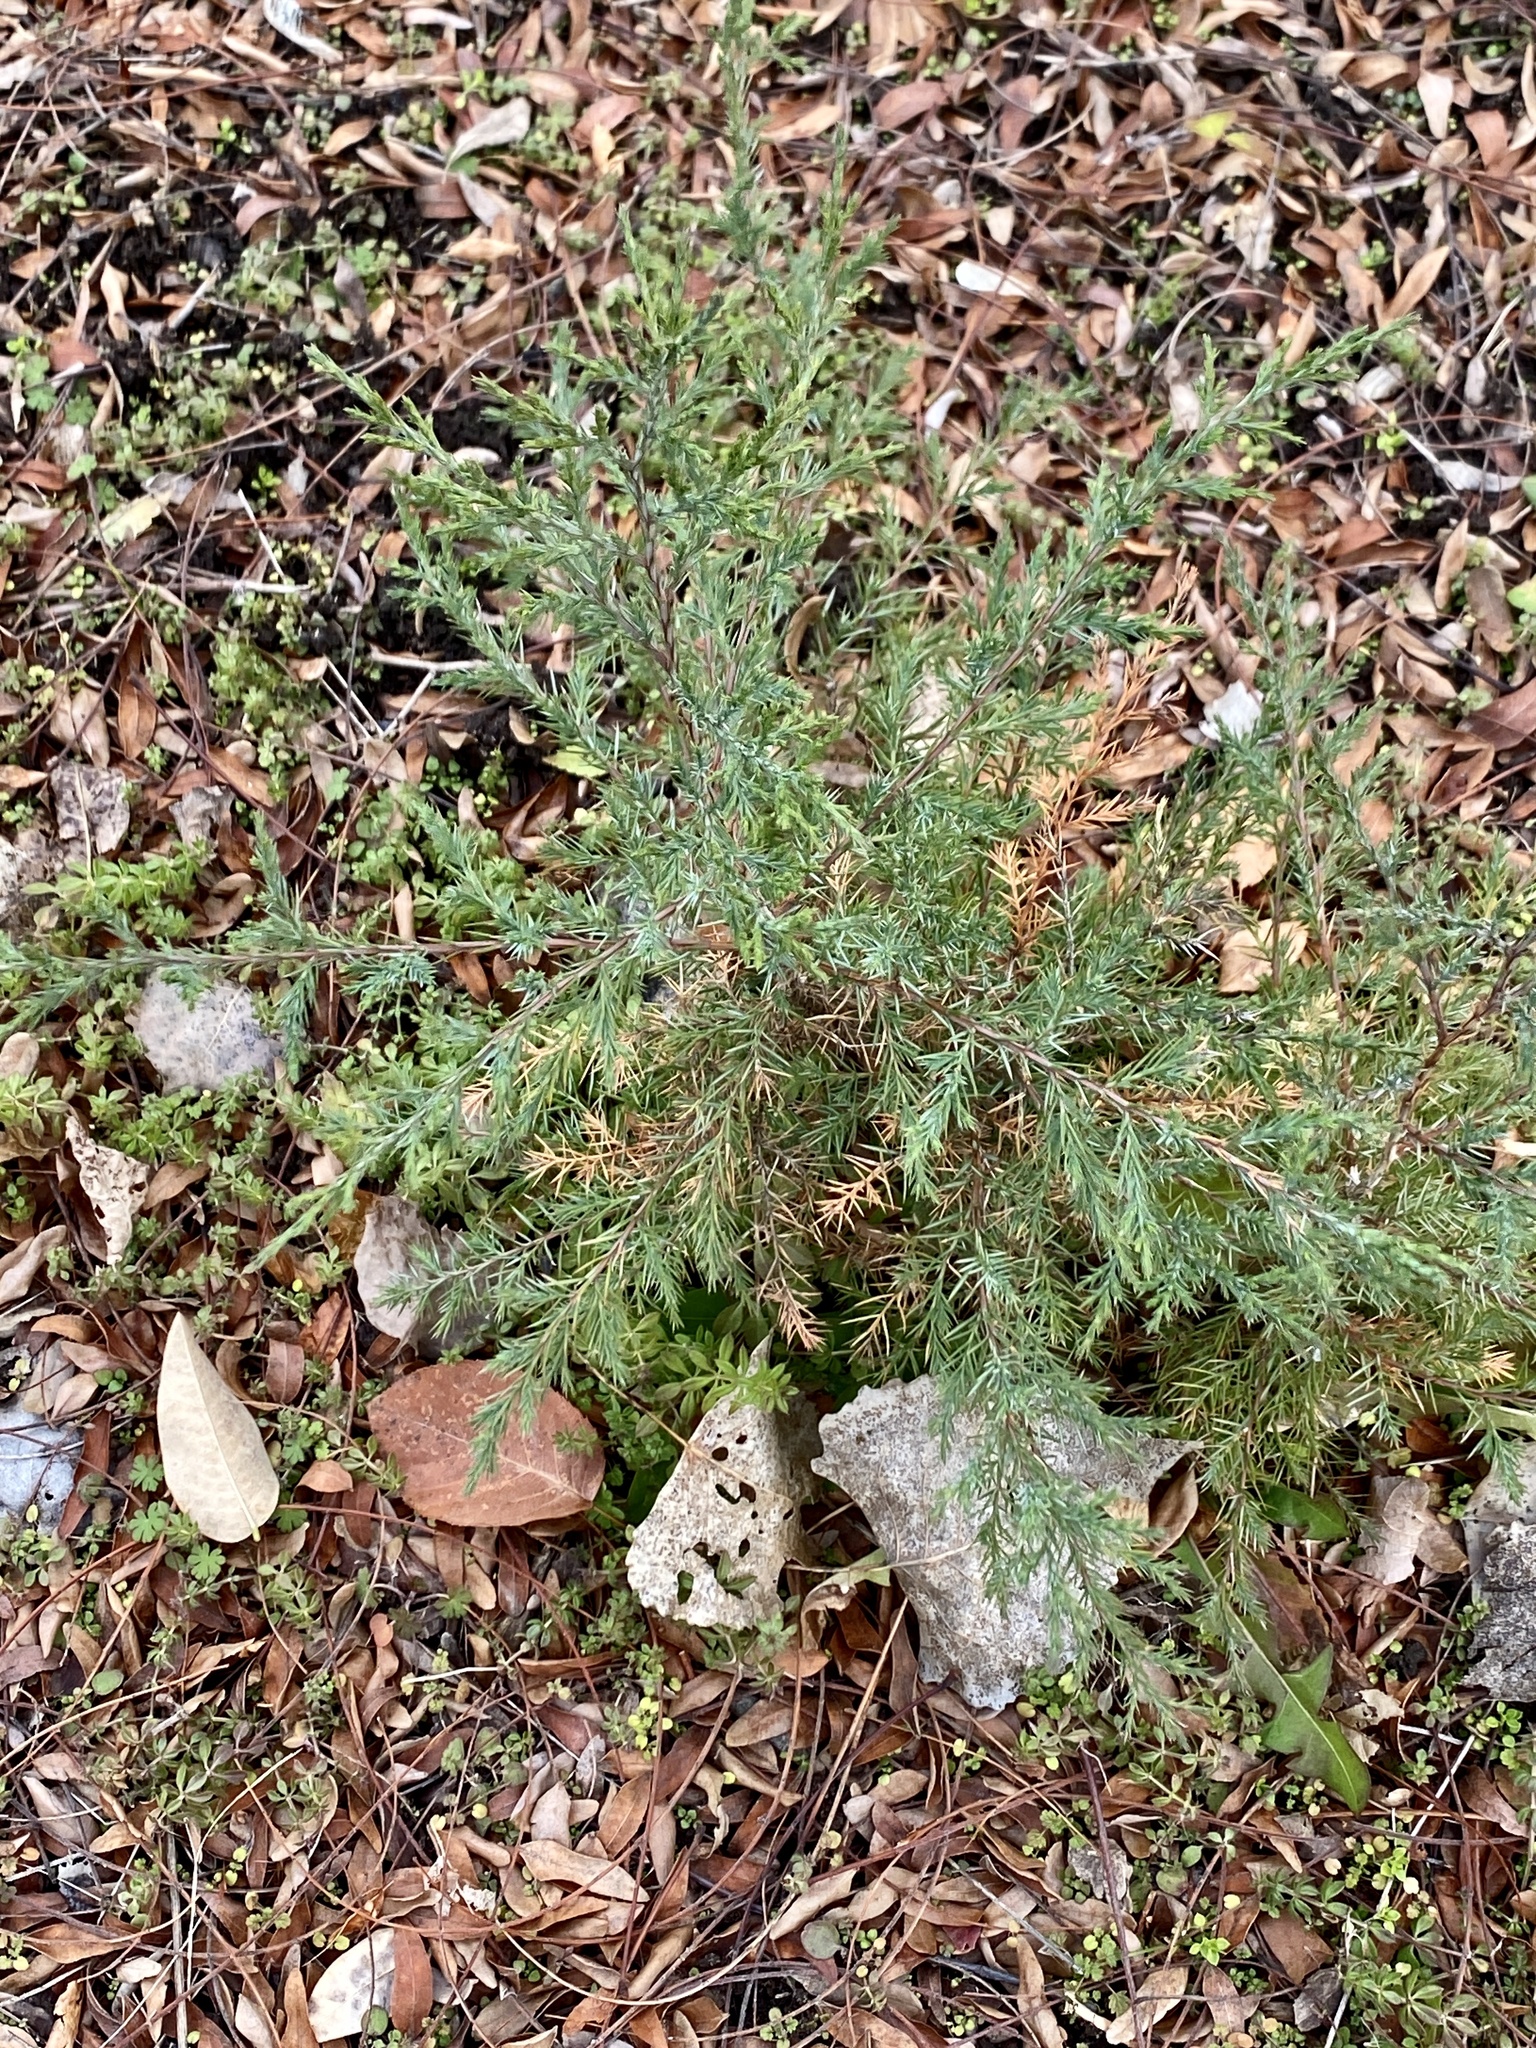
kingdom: Plantae
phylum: Tracheophyta
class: Pinopsida
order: Pinales
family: Cupressaceae
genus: Juniperus
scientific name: Juniperus virginiana
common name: Red juniper
